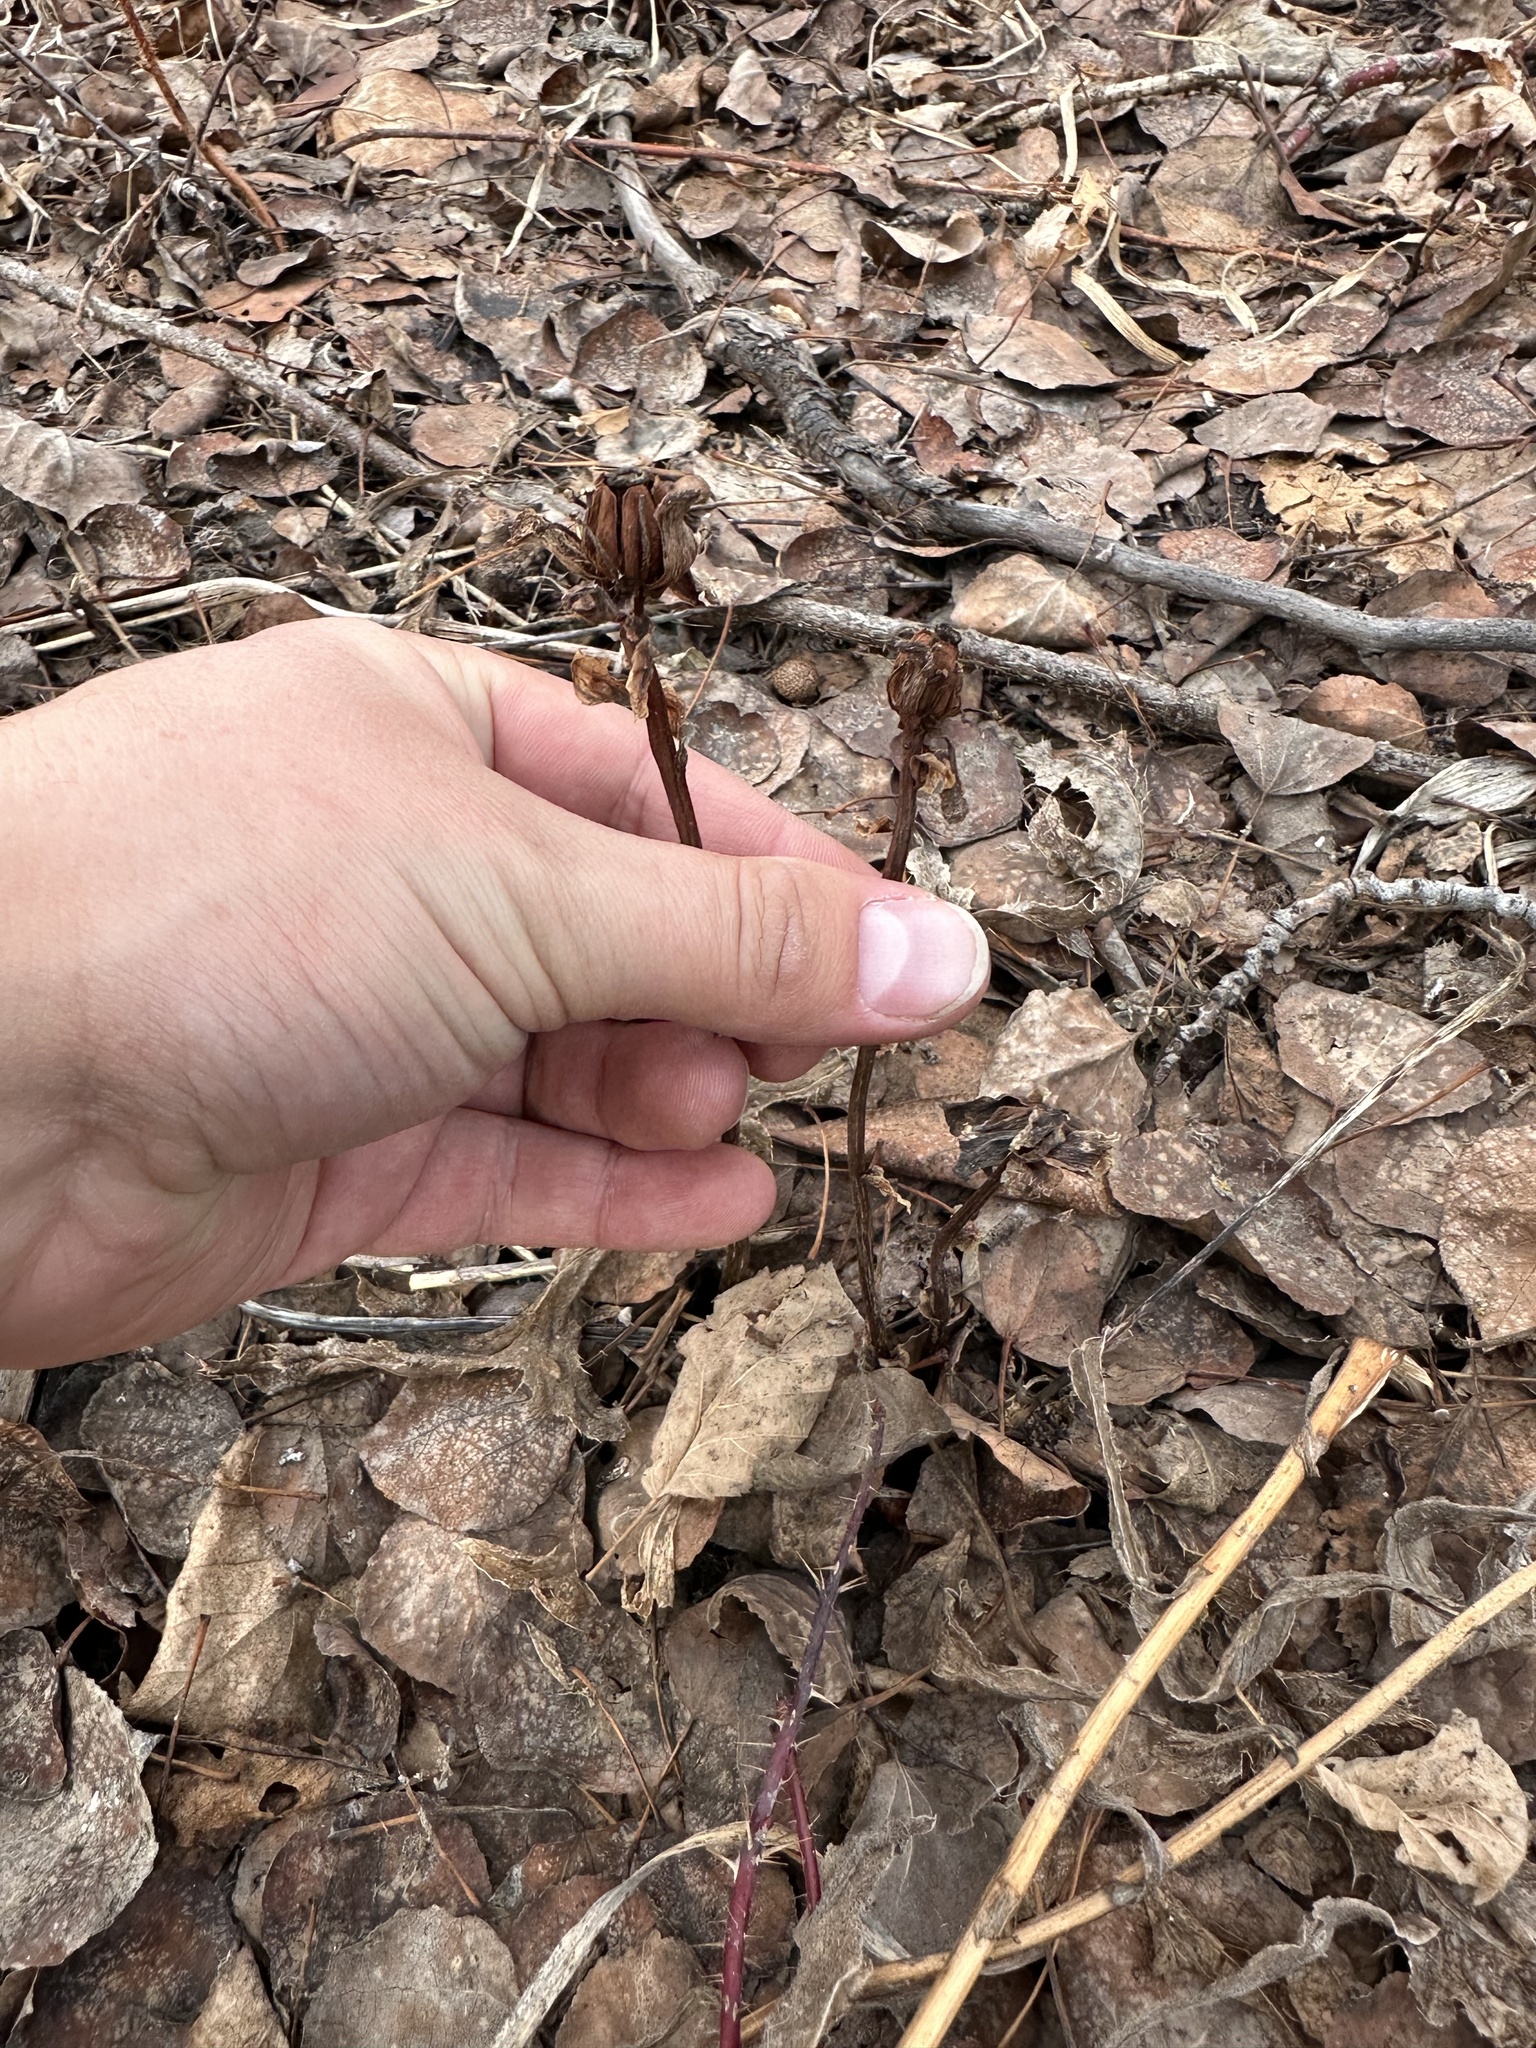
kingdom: Plantae
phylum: Tracheophyta
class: Magnoliopsida
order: Ericales
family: Ericaceae
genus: Monotropa
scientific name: Monotropa uniflora
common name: Convulsion root
